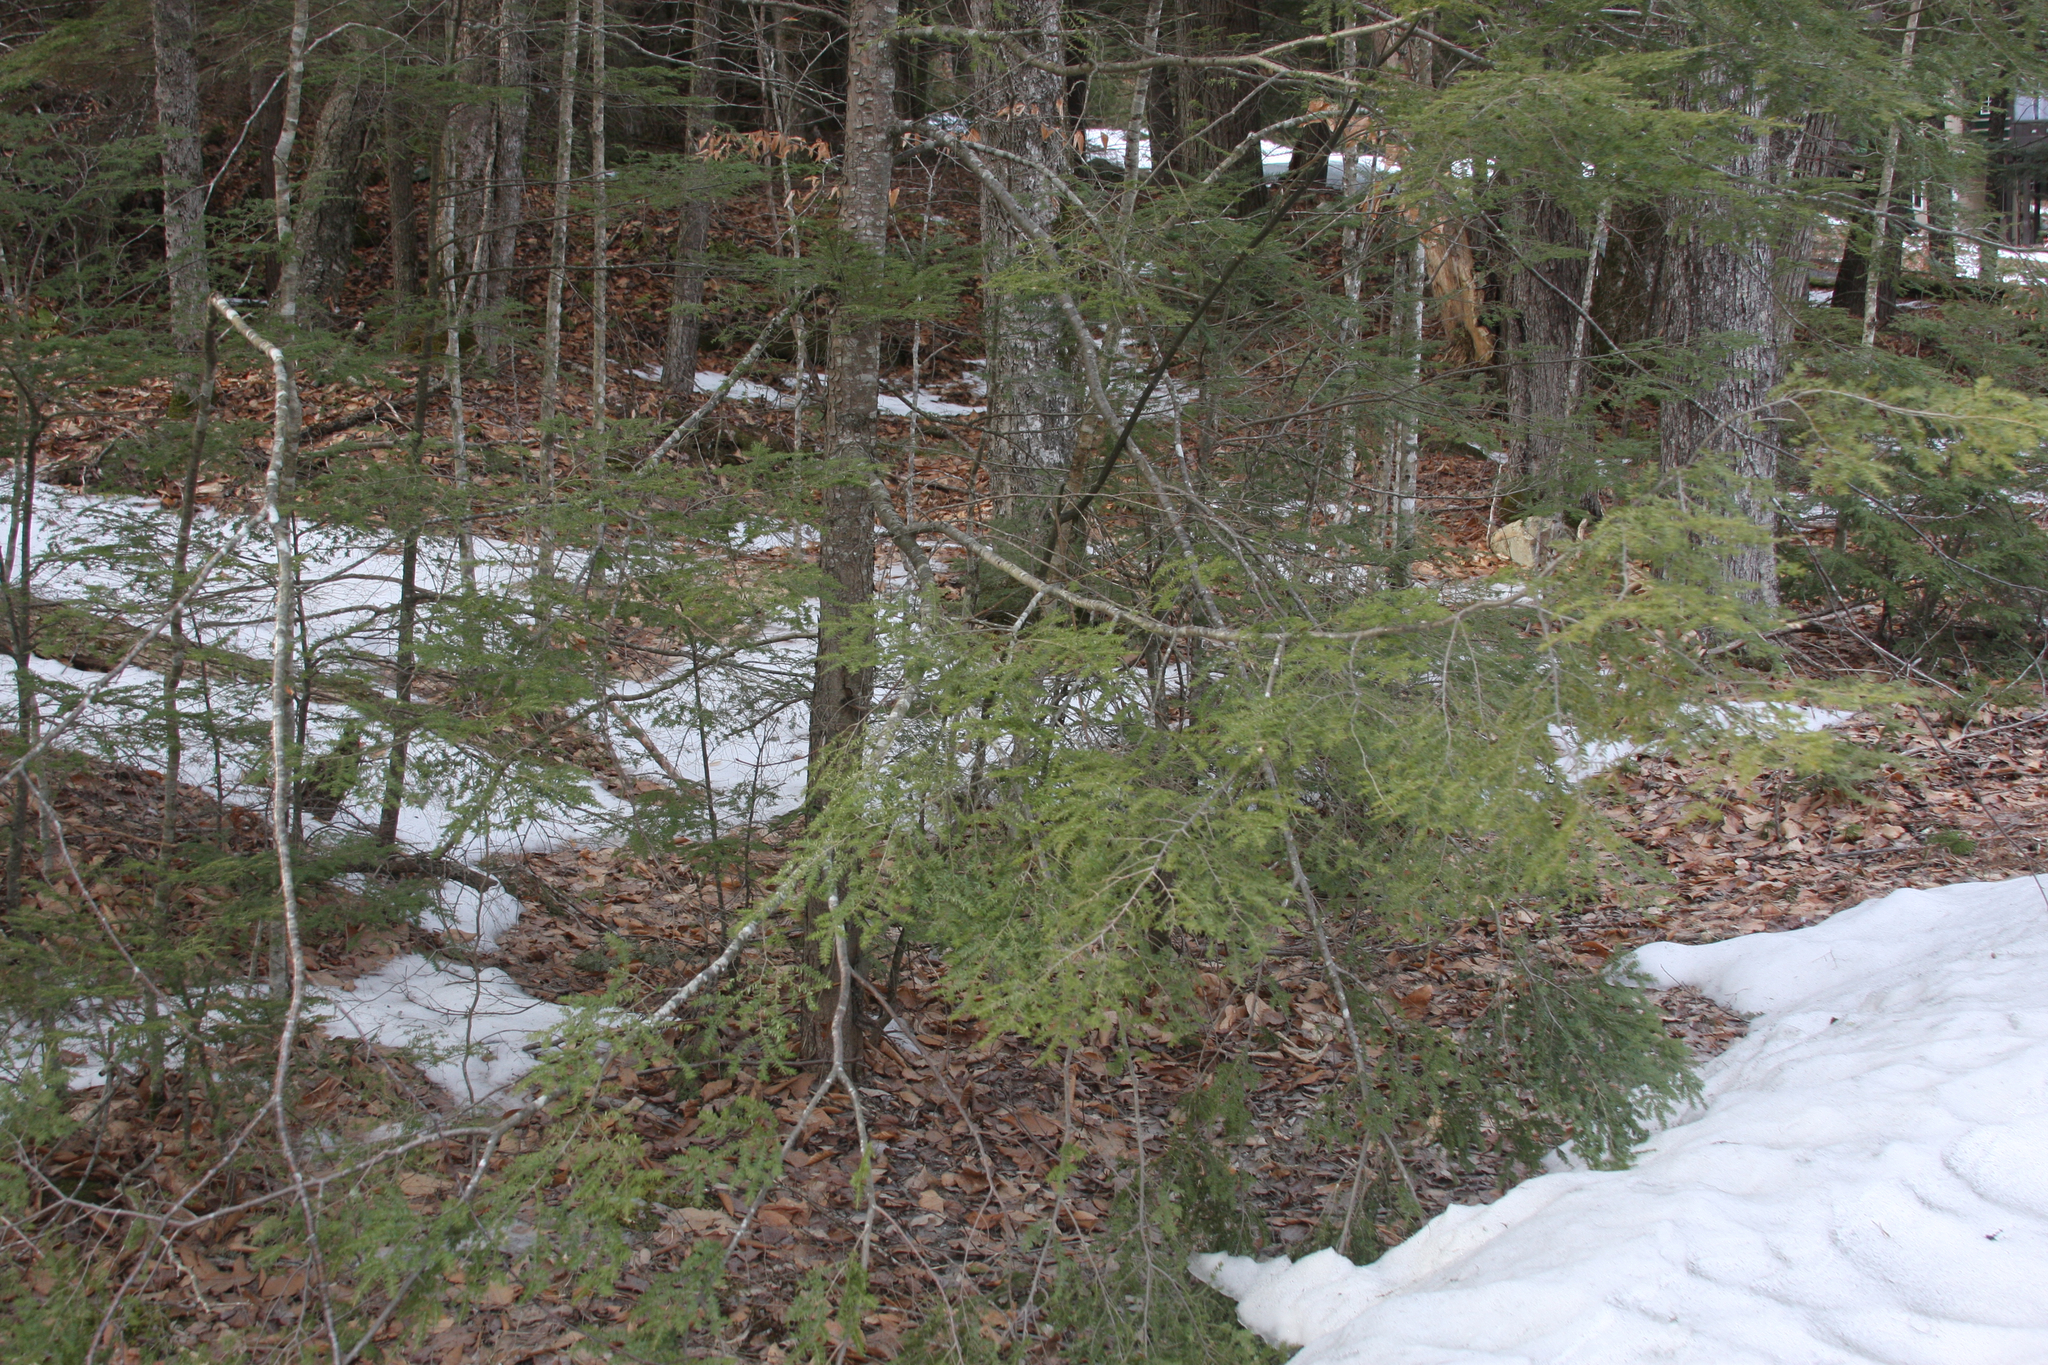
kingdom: Plantae
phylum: Tracheophyta
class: Pinopsida
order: Pinales
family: Pinaceae
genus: Tsuga
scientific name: Tsuga canadensis
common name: Eastern hemlock
